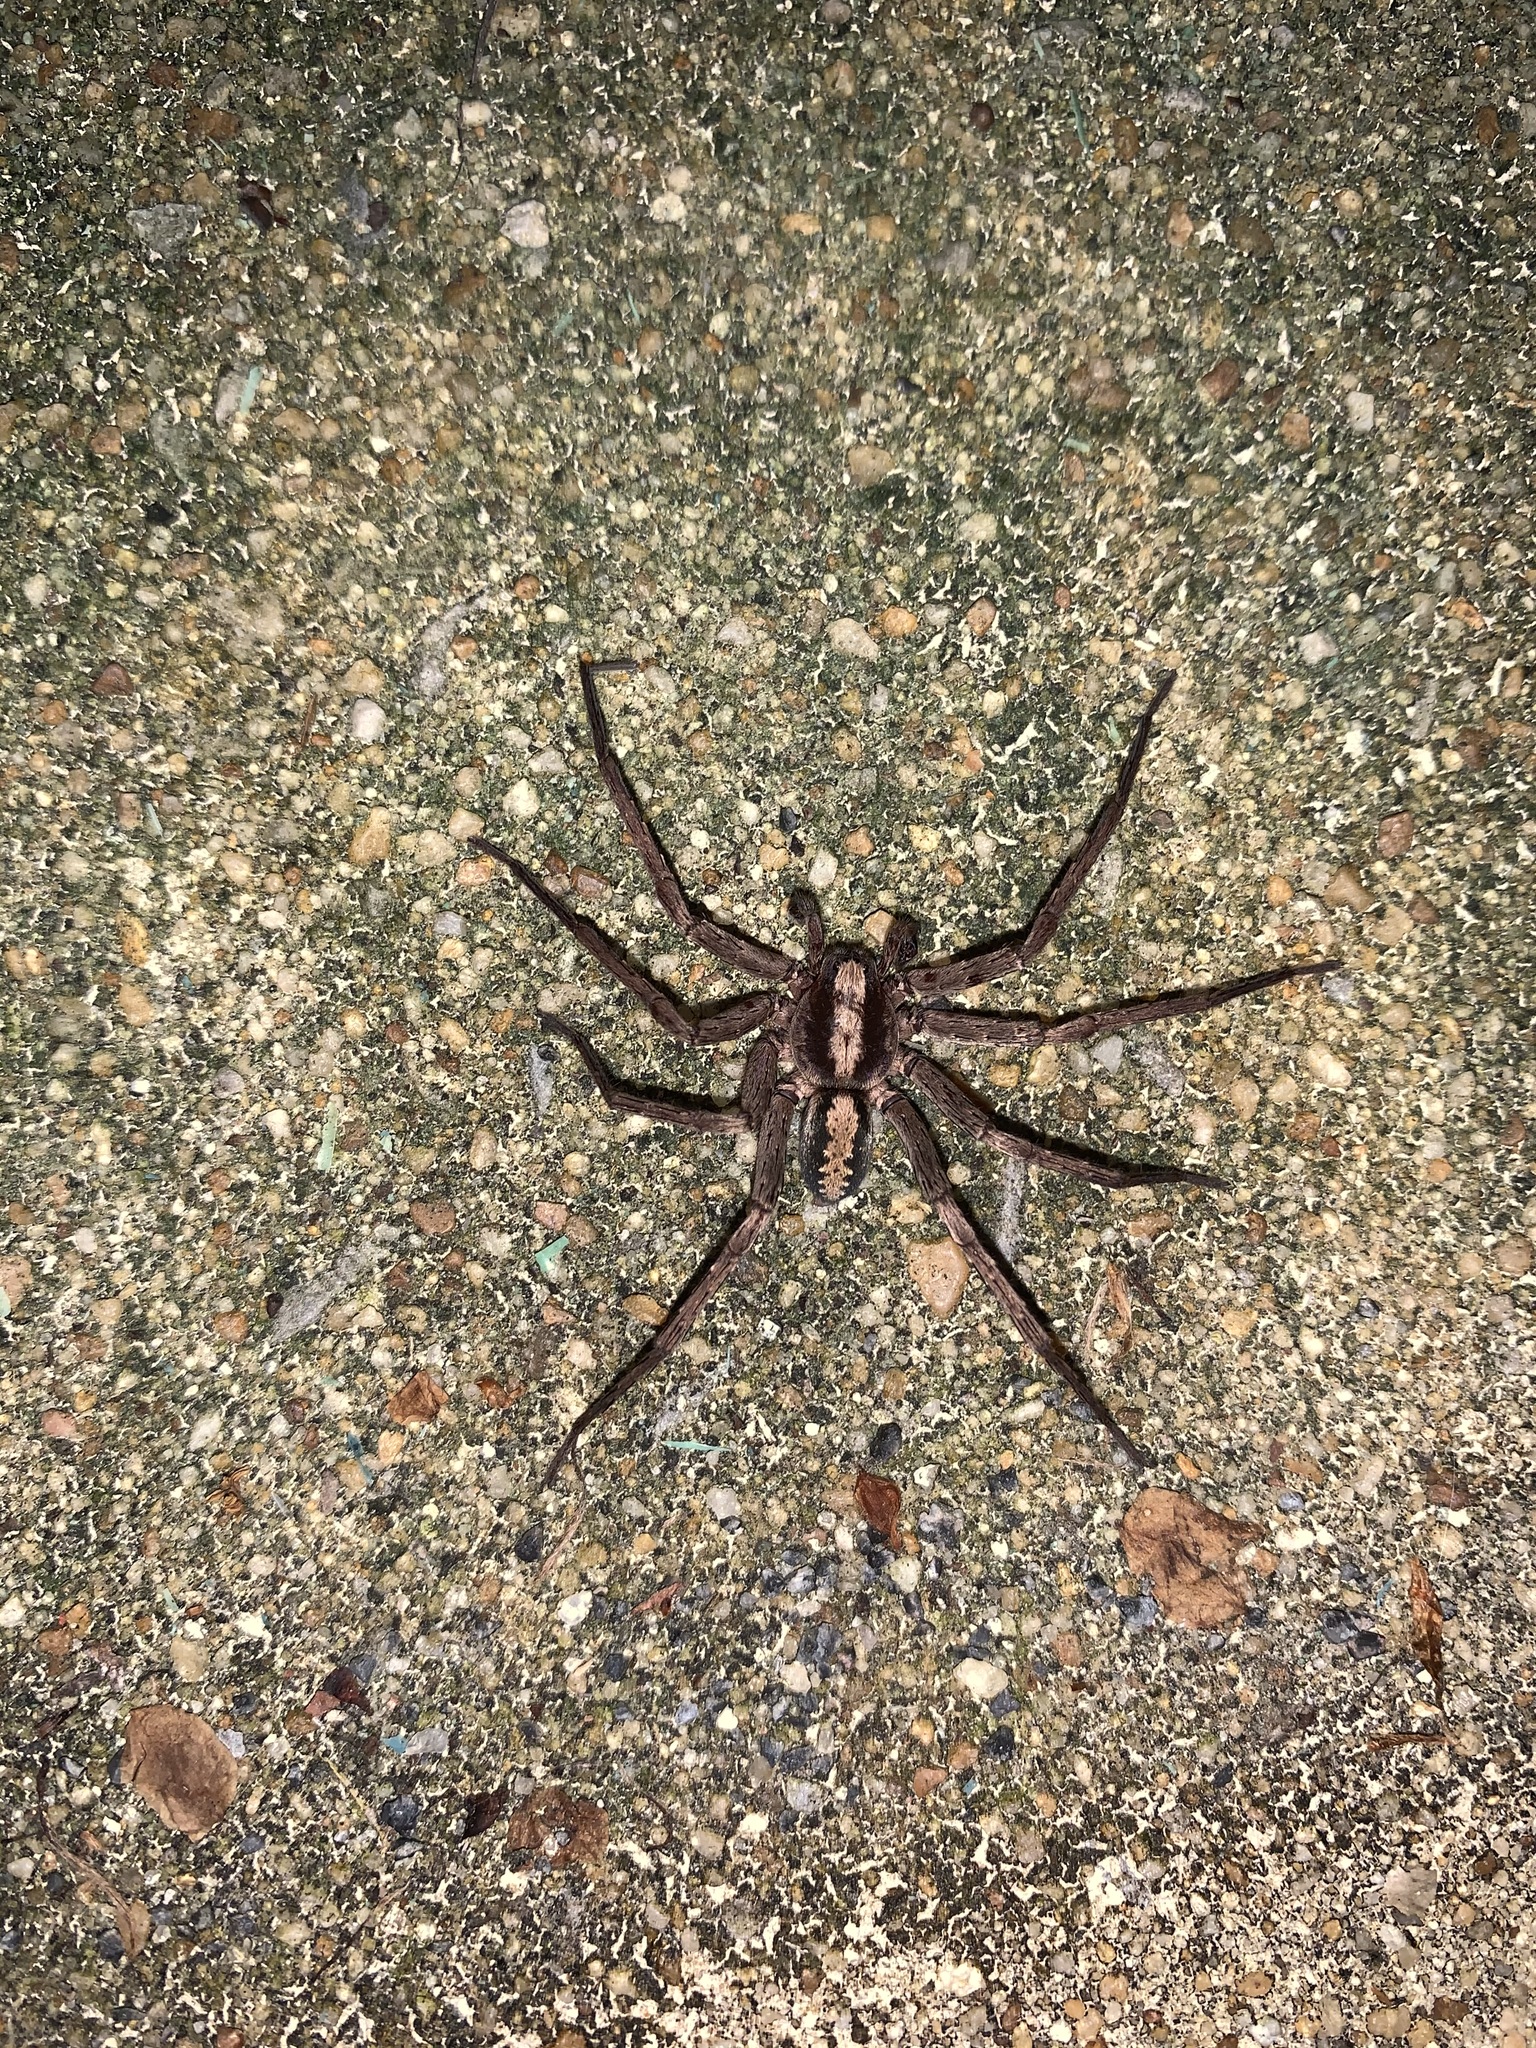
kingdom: Animalia
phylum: Arthropoda
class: Arachnida
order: Araneae
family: Ctenidae
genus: Ctenus
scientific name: Ctenus hibernalis
